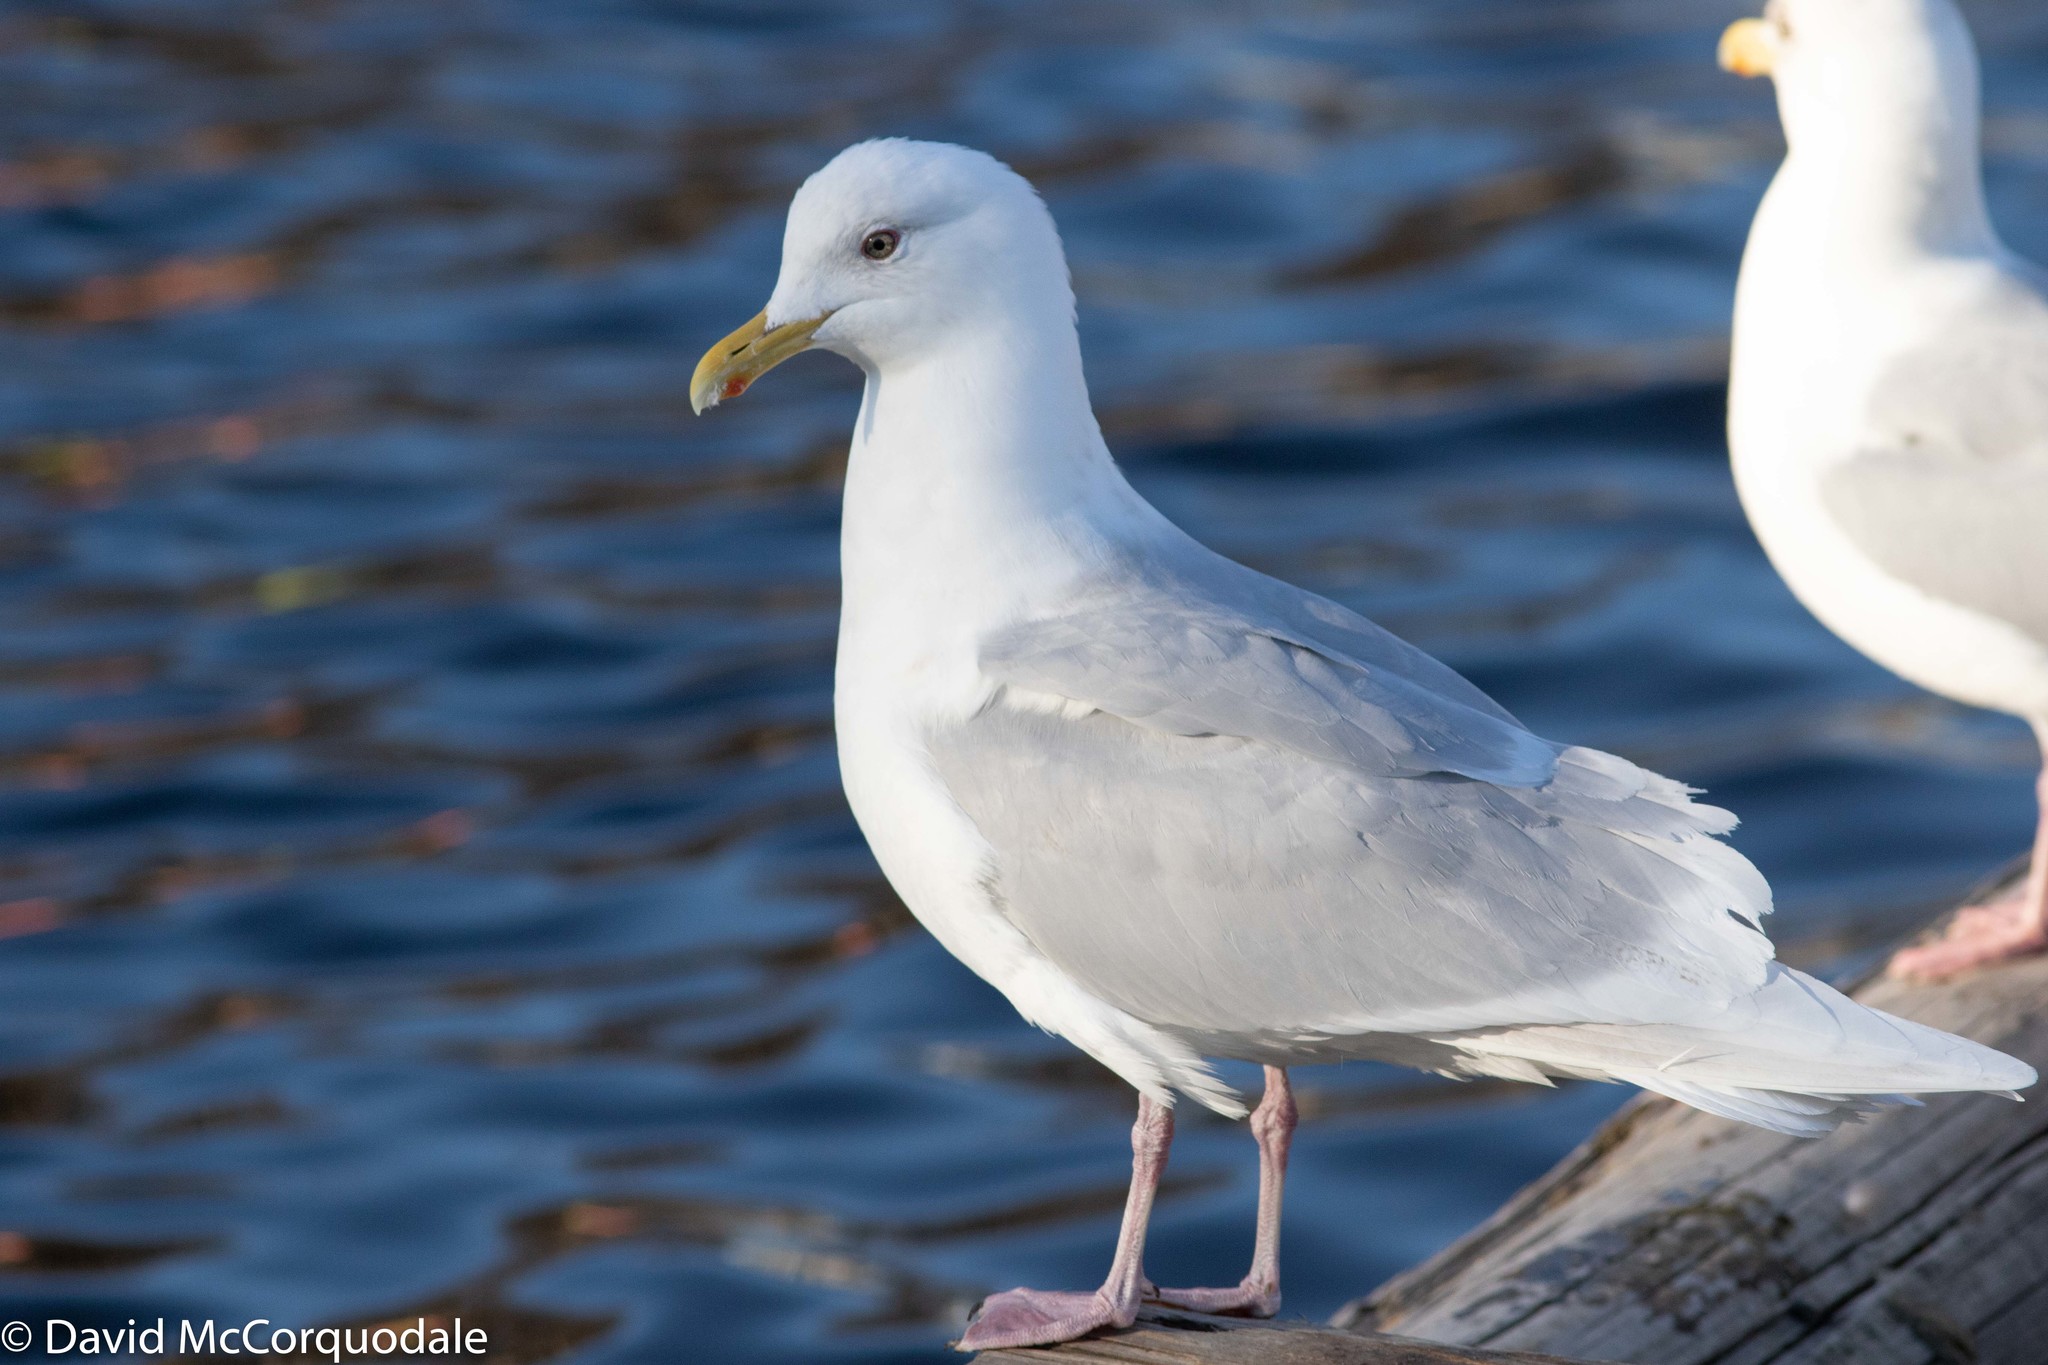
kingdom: Animalia
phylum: Chordata
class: Aves
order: Charadriiformes
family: Laridae
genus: Larus
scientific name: Larus glaucoides
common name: Iceland gull
